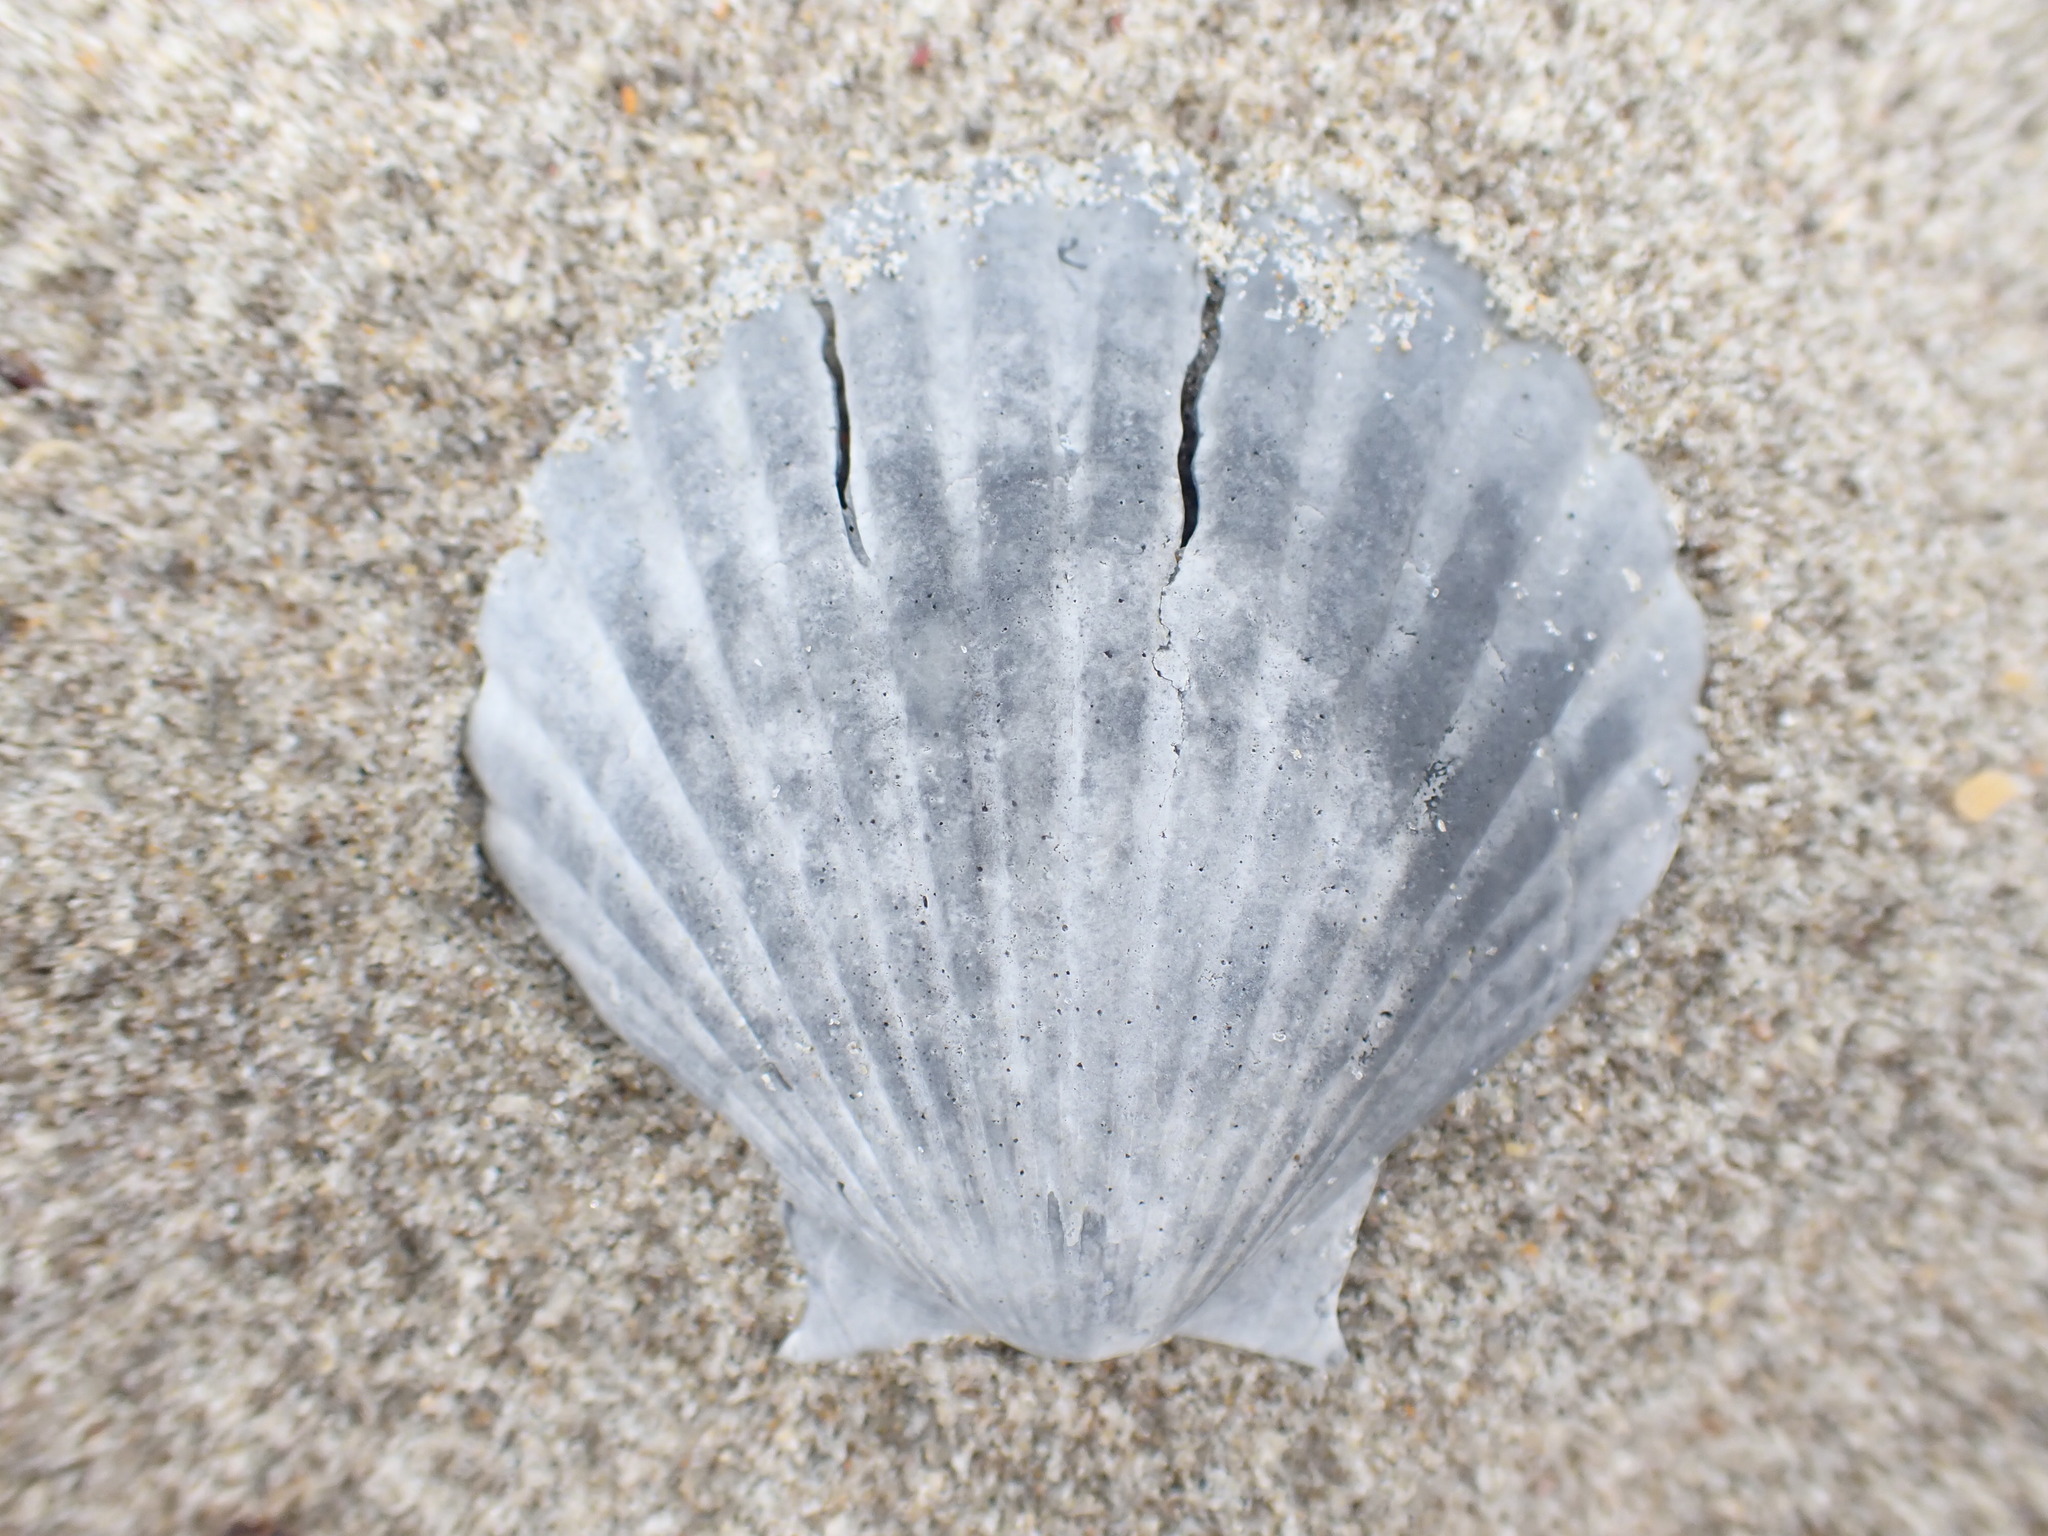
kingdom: Animalia
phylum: Mollusca
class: Bivalvia
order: Pectinida
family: Pectinidae
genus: Pecten
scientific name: Pecten novaezelandiae
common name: New zealand scallop
